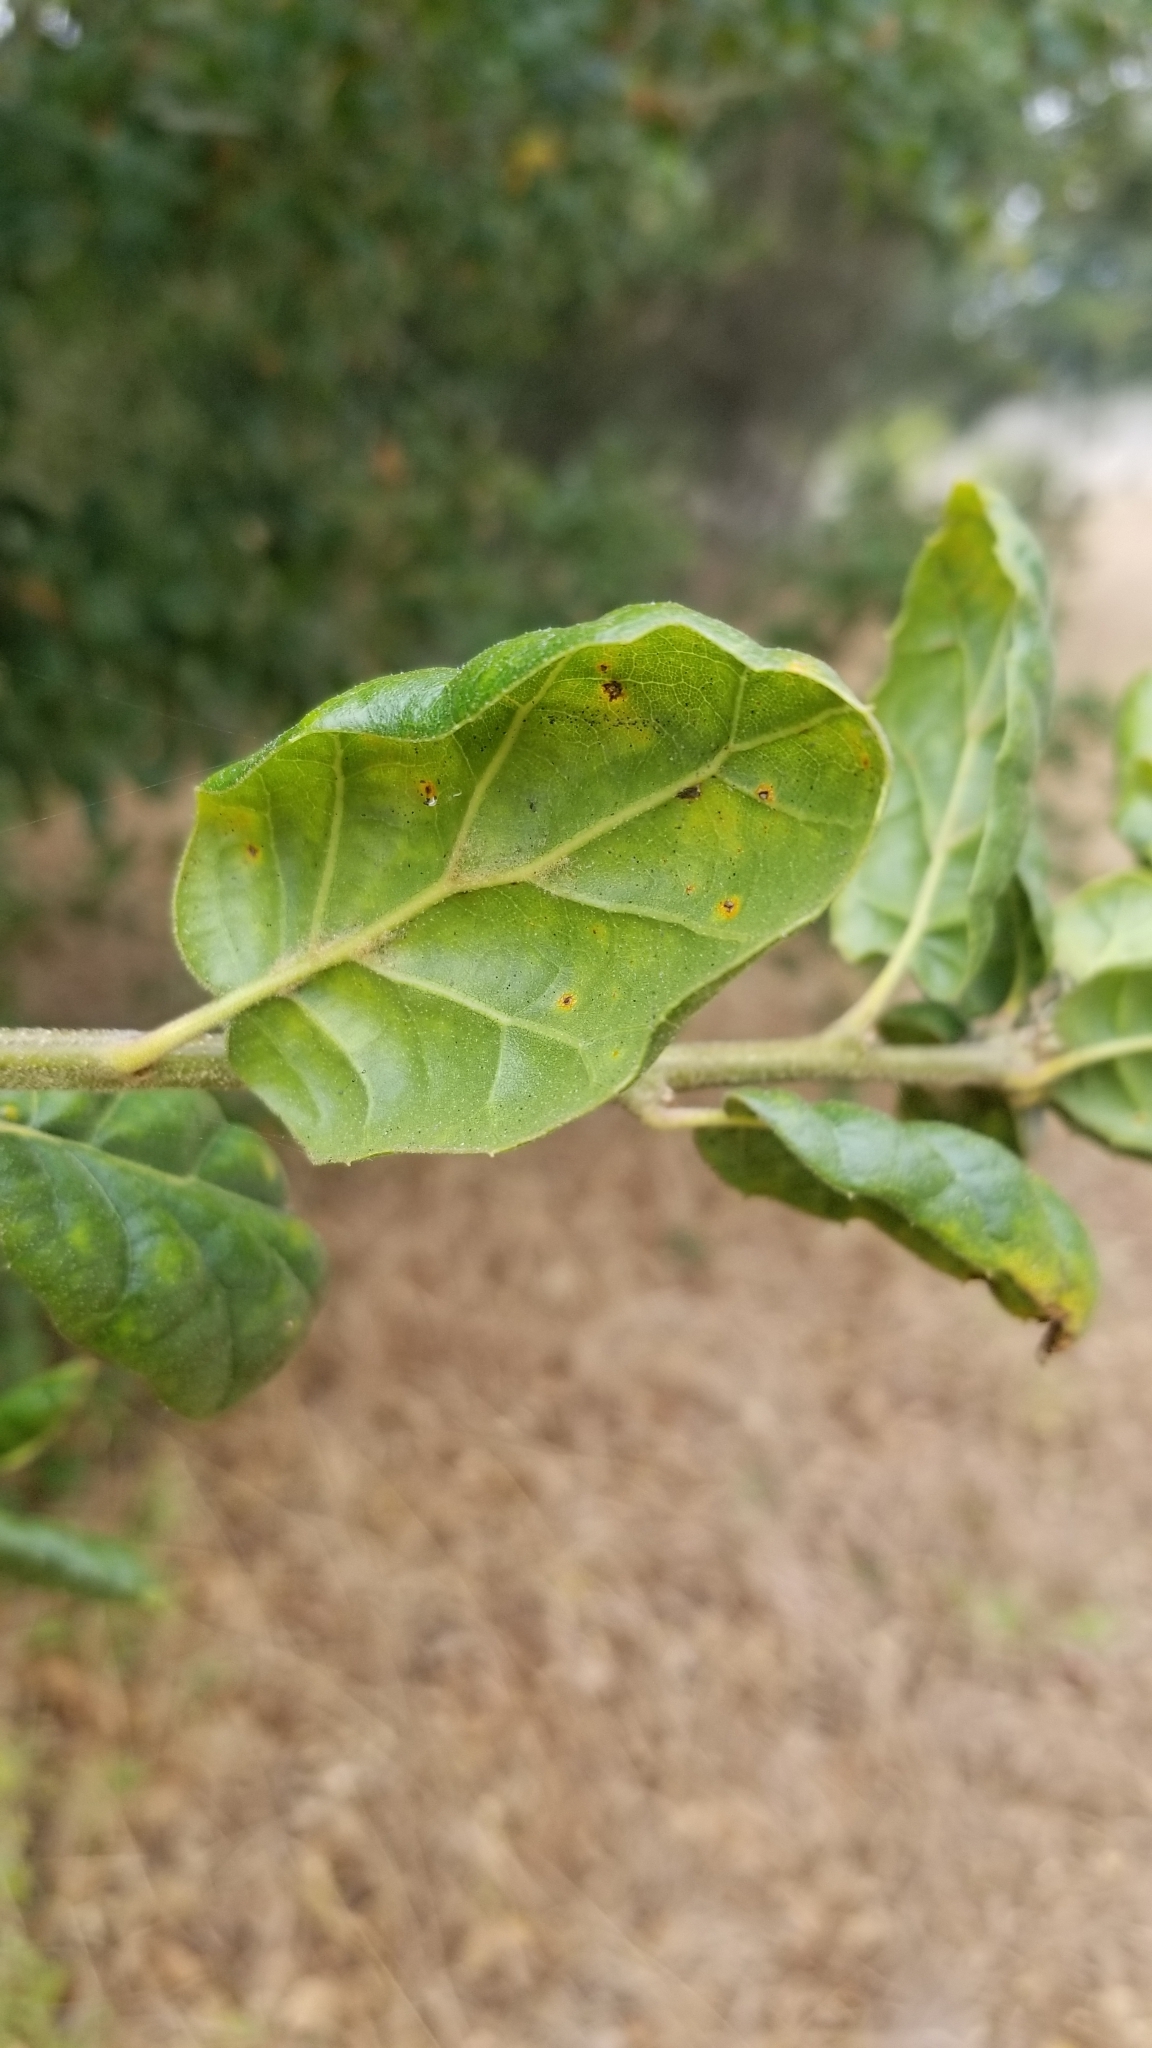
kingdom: Plantae
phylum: Tracheophyta
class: Magnoliopsida
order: Fagales
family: Fagaceae
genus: Quercus
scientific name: Quercus agrifolia
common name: California live oak
